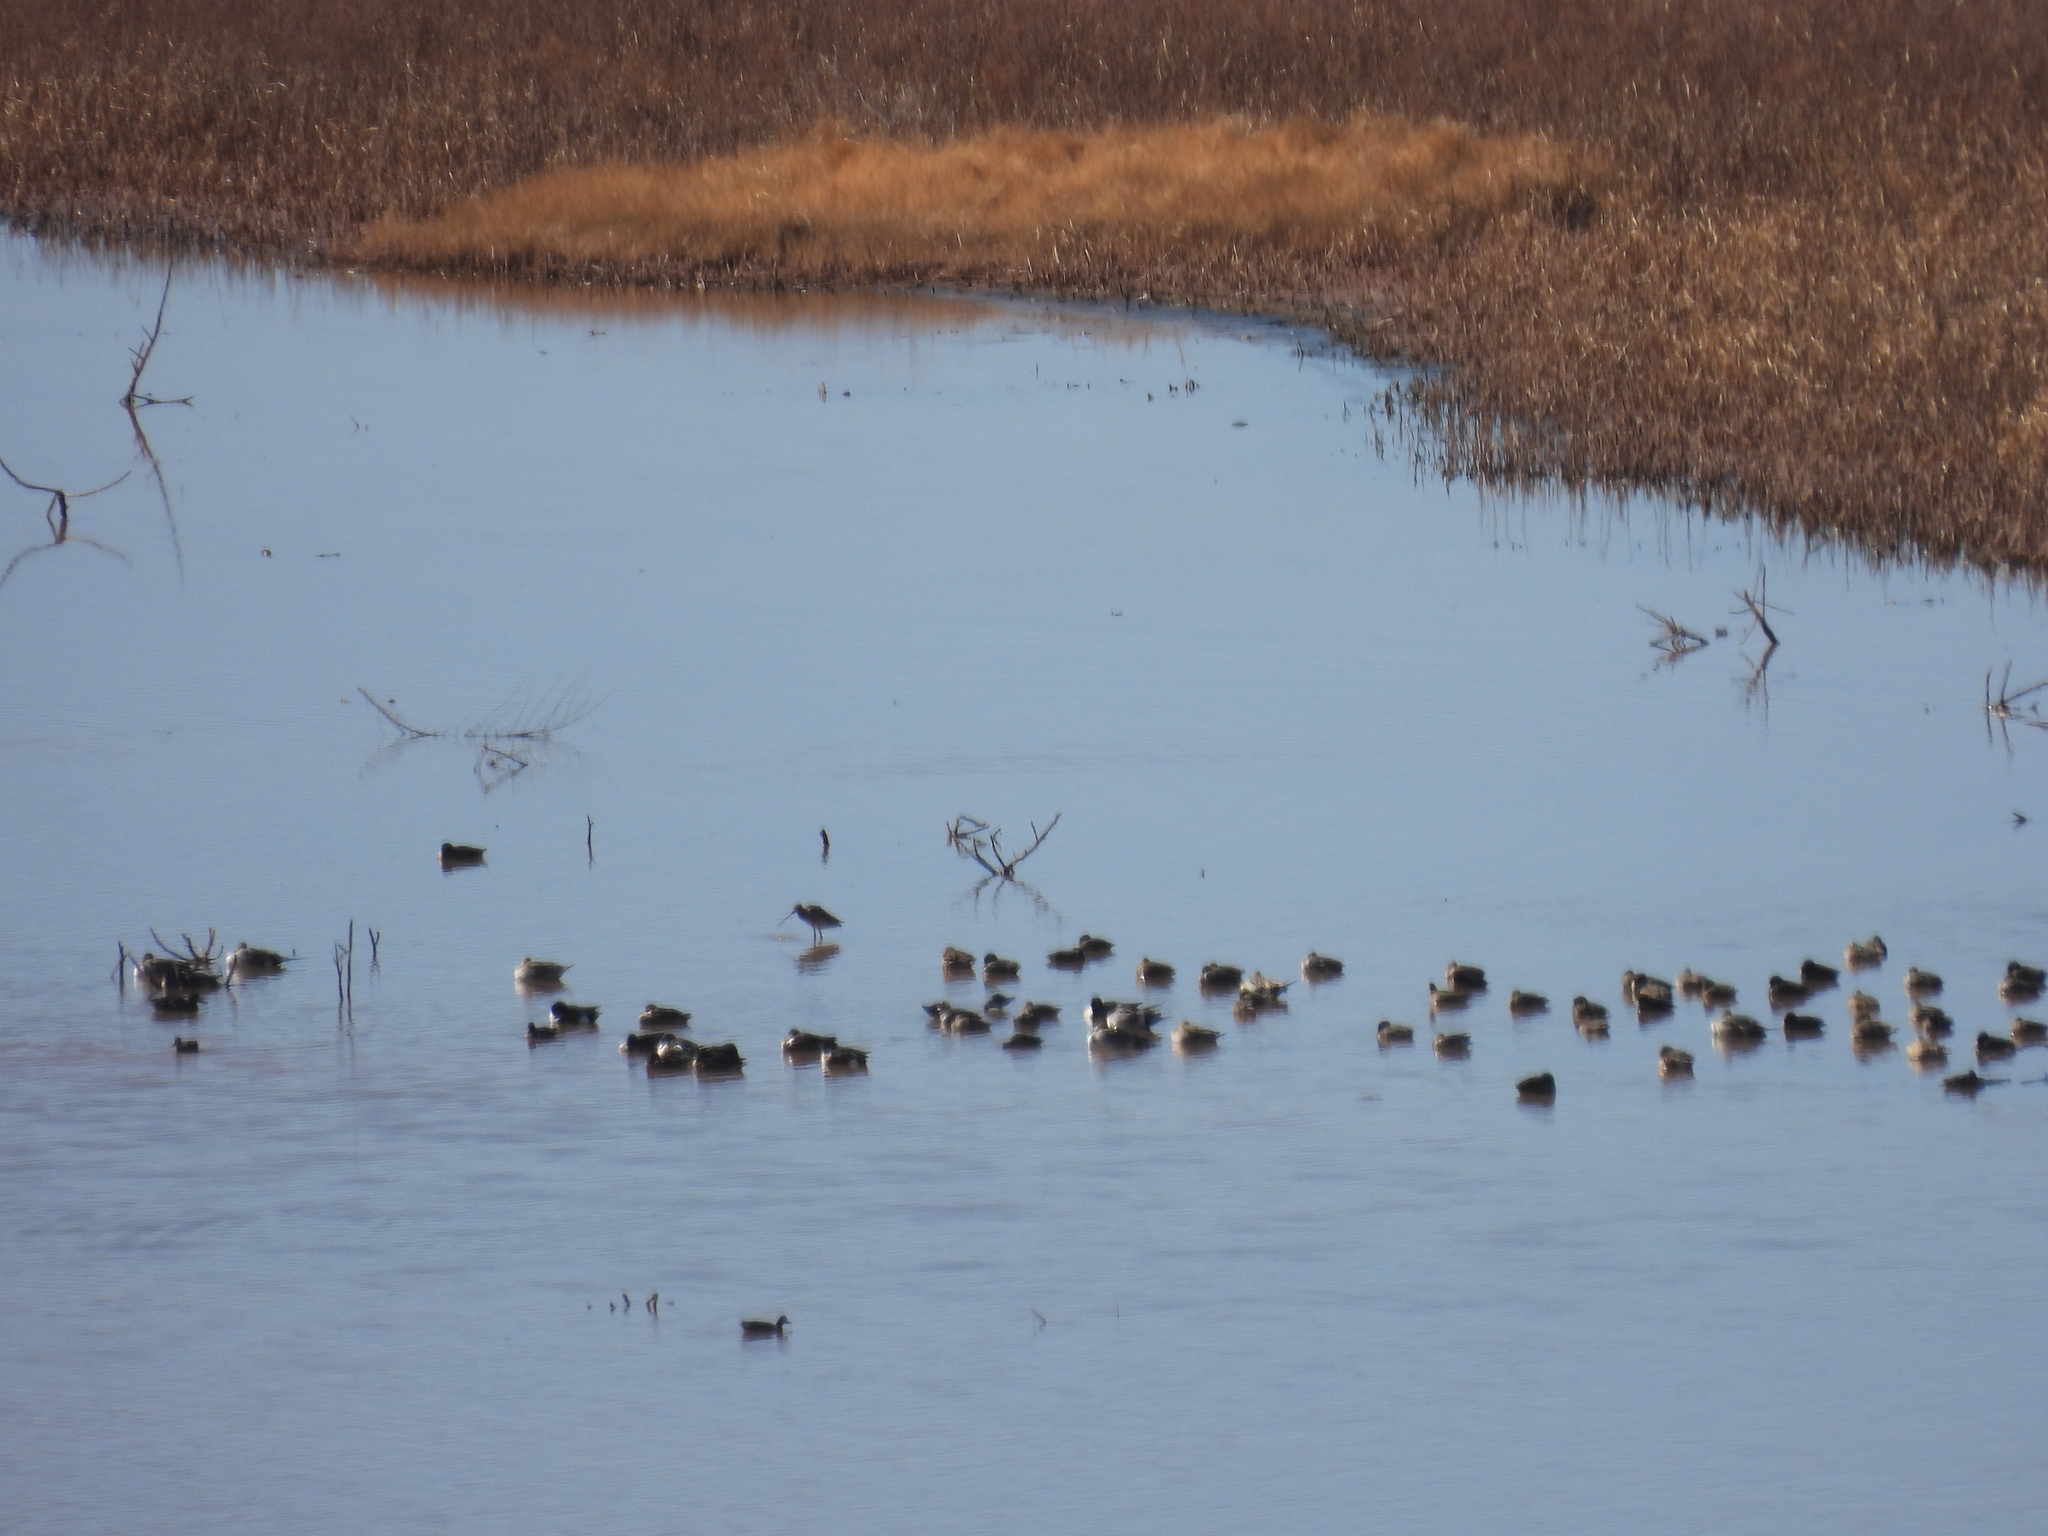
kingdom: Animalia
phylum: Chordata
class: Aves
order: Charadriiformes
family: Scolopacidae
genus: Limosa
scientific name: Limosa fedoa
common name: Marbled godwit
